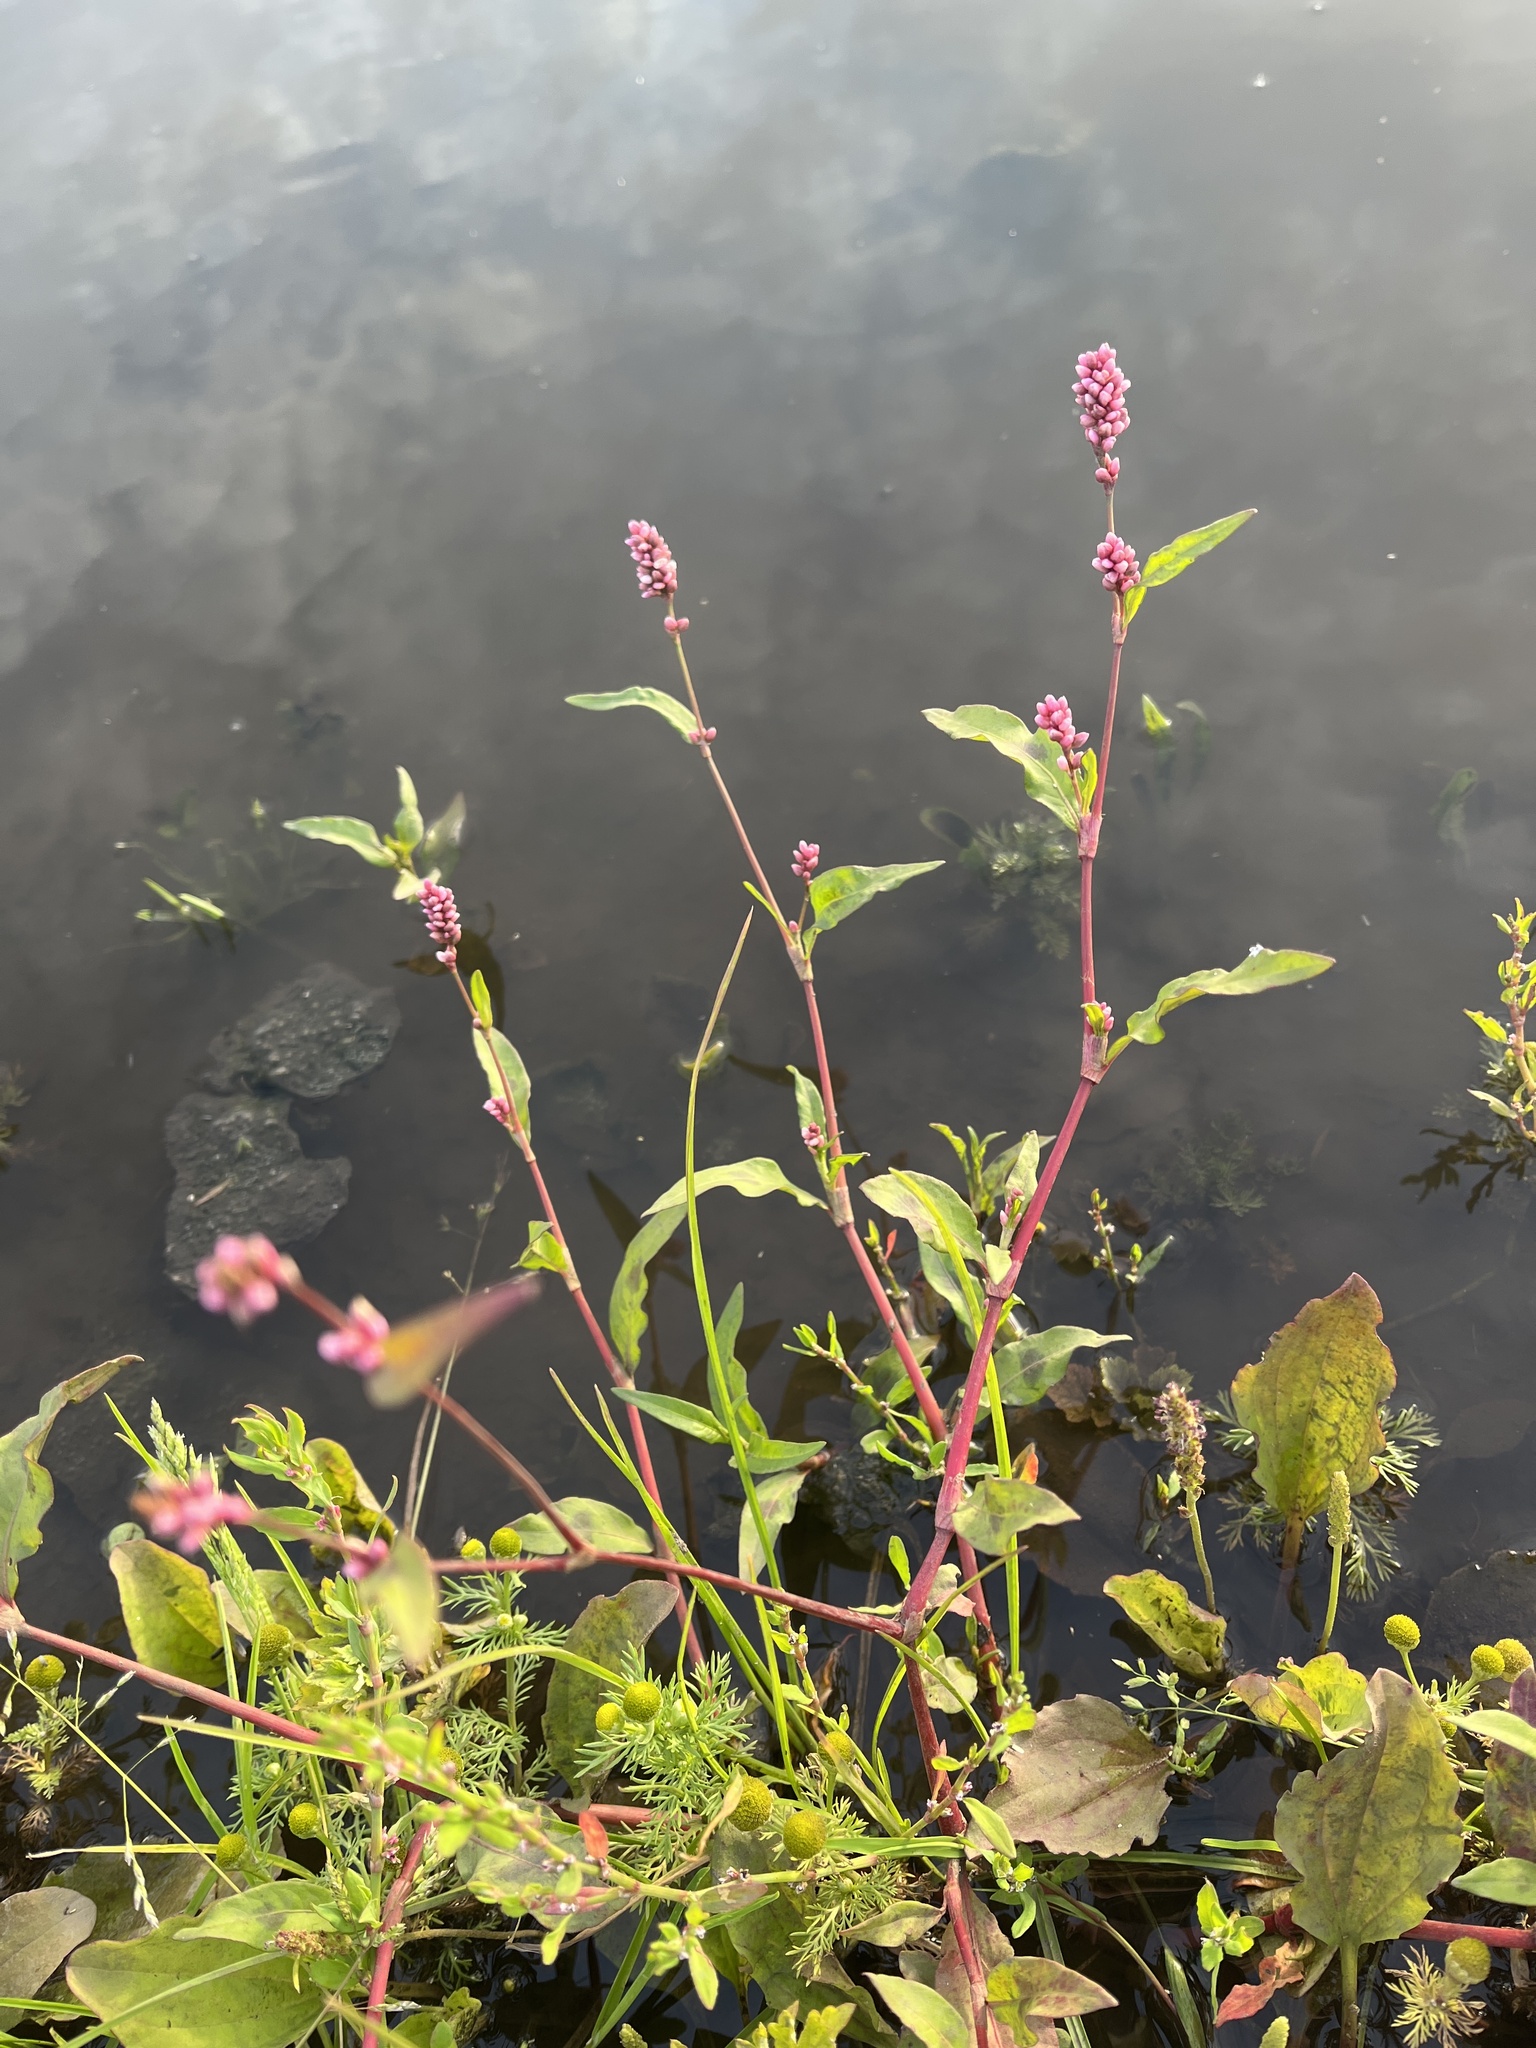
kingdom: Plantae
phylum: Tracheophyta
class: Magnoliopsida
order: Caryophyllales
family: Polygonaceae
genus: Persicaria
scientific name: Persicaria maculosa
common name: Redshank
